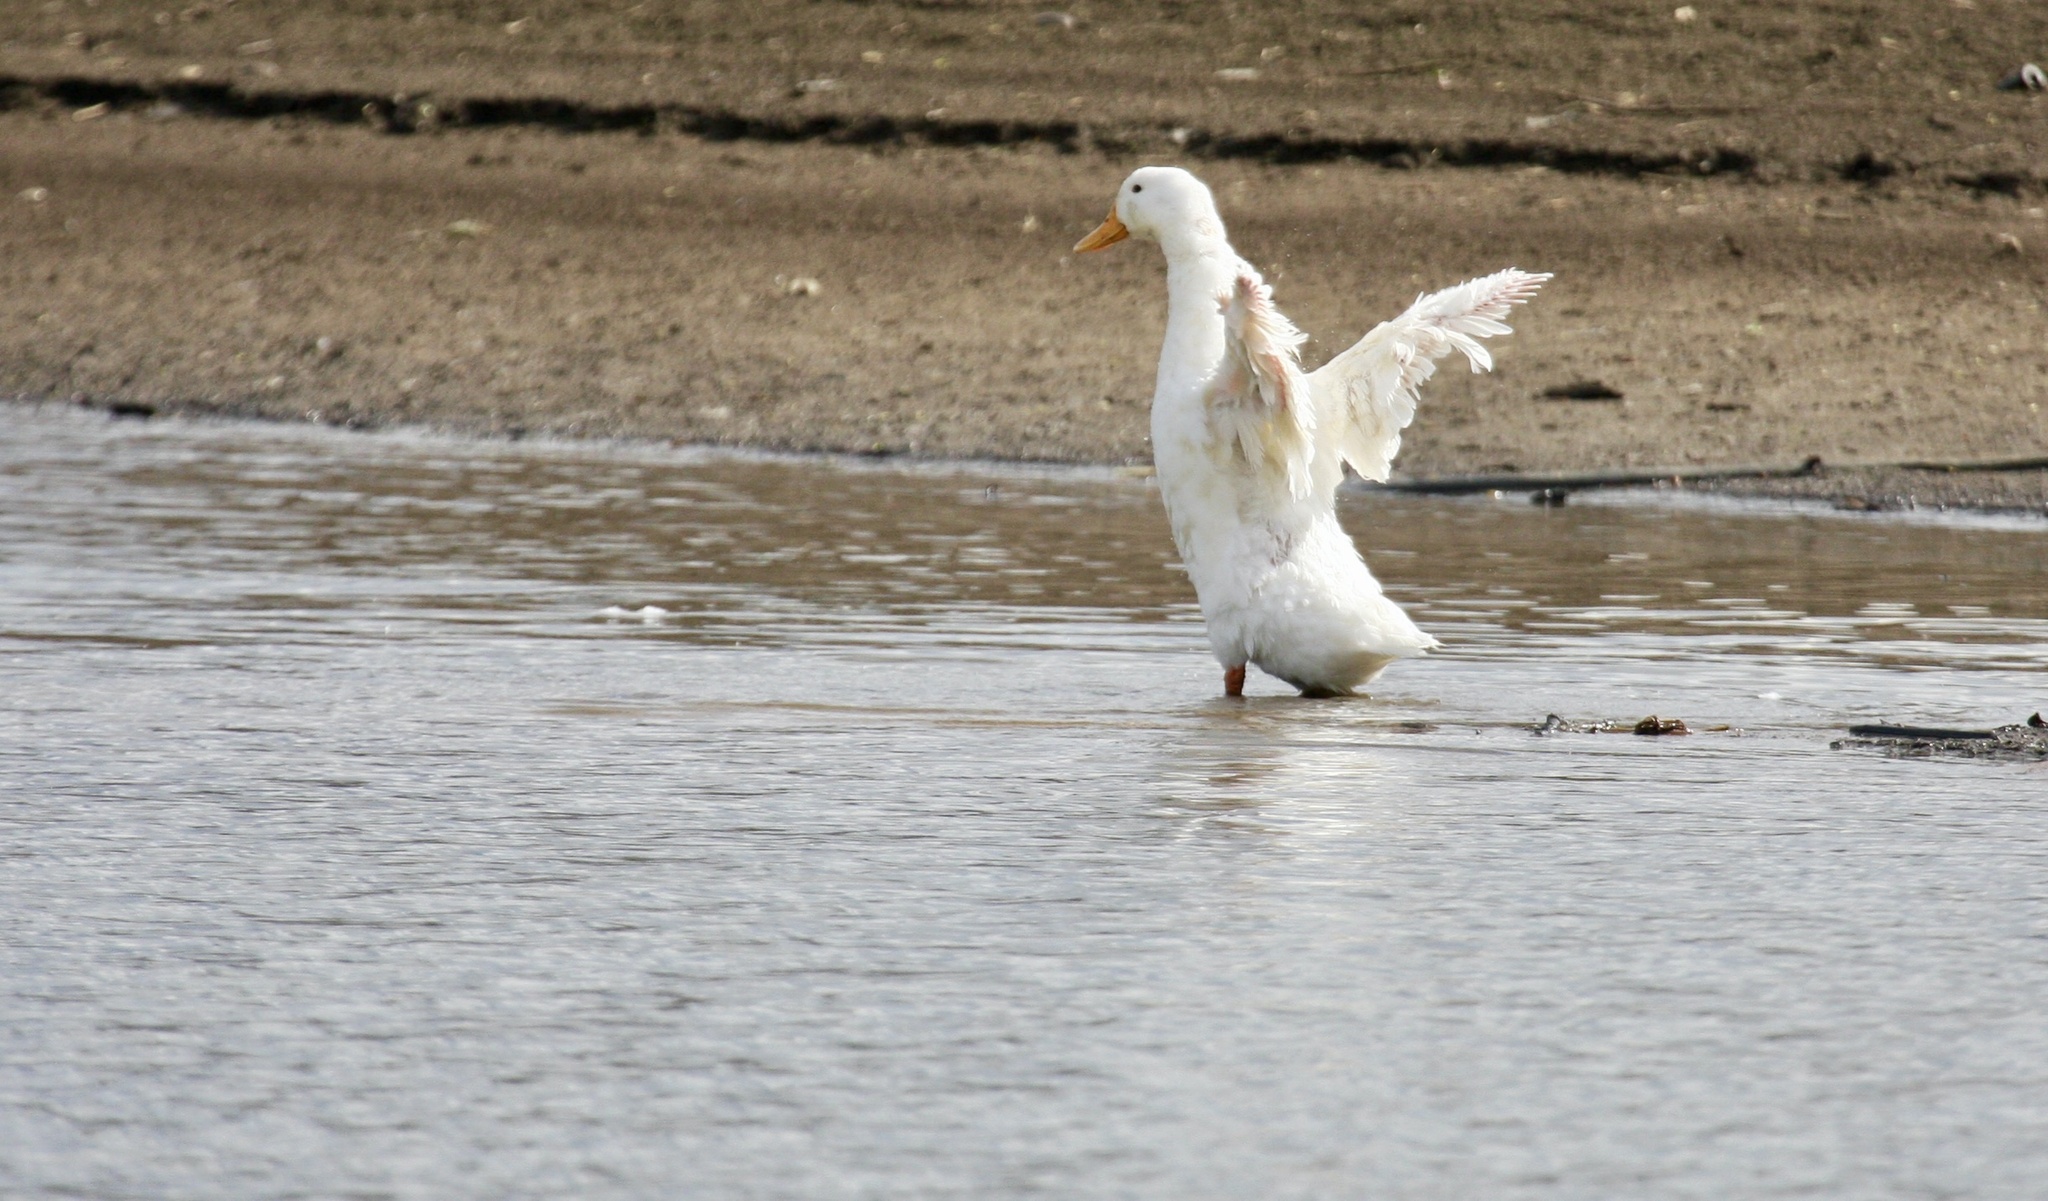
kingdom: Animalia
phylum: Chordata
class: Aves
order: Anseriformes
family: Anatidae
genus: Anas
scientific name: Anas platyrhynchos
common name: Mallard
